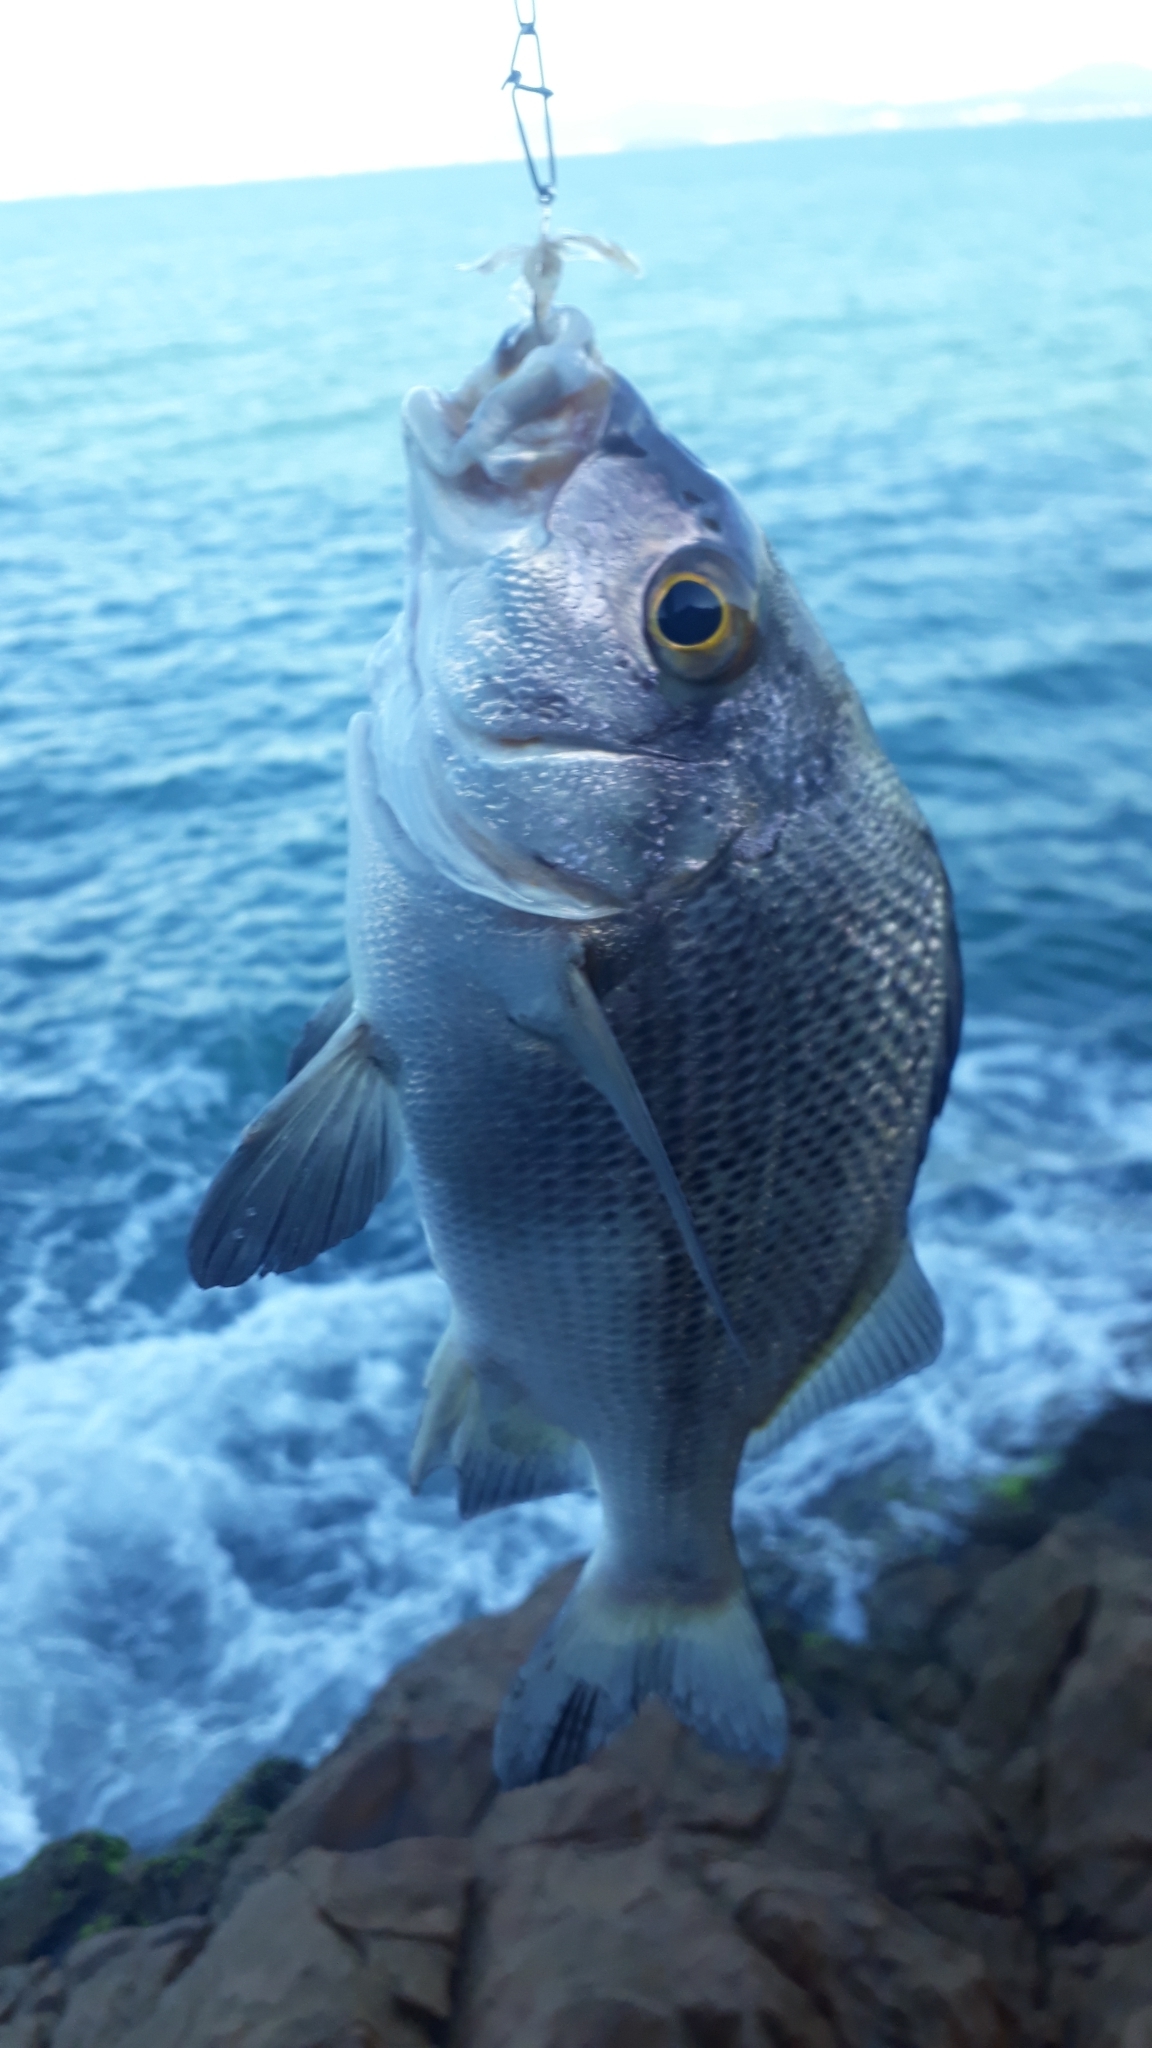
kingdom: Animalia
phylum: Chordata
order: Perciformes
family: Haemulidae
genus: Haemulon
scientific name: Haemulon parra
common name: Sailor's choice
